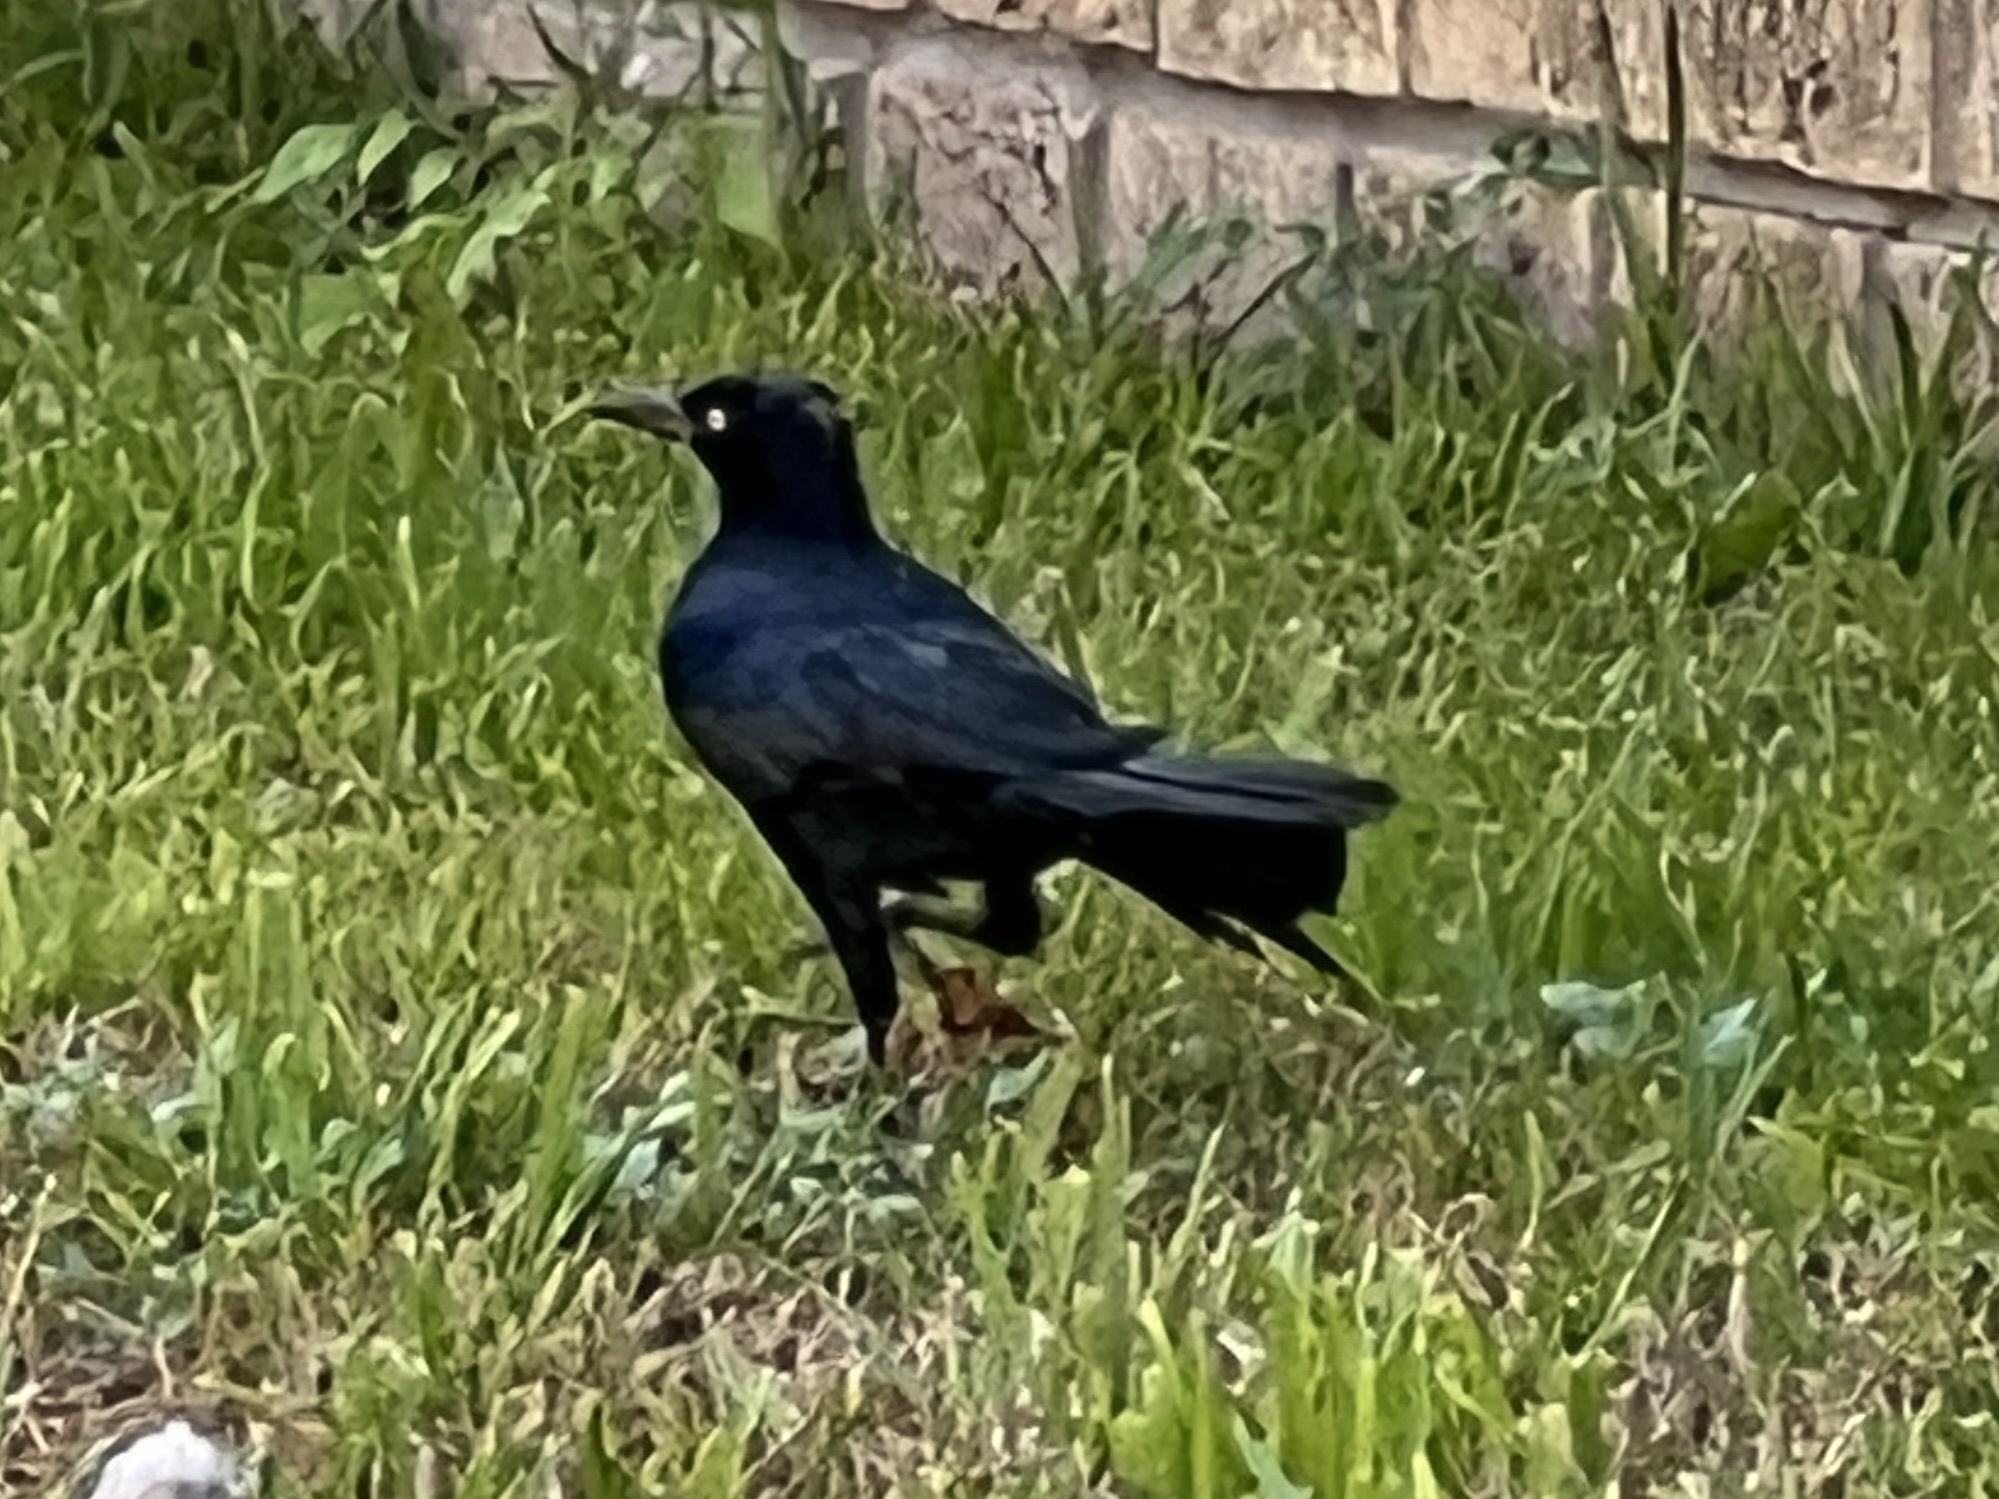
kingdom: Animalia
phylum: Chordata
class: Aves
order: Passeriformes
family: Icteridae
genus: Quiscalus
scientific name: Quiscalus mexicanus
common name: Great-tailed grackle
